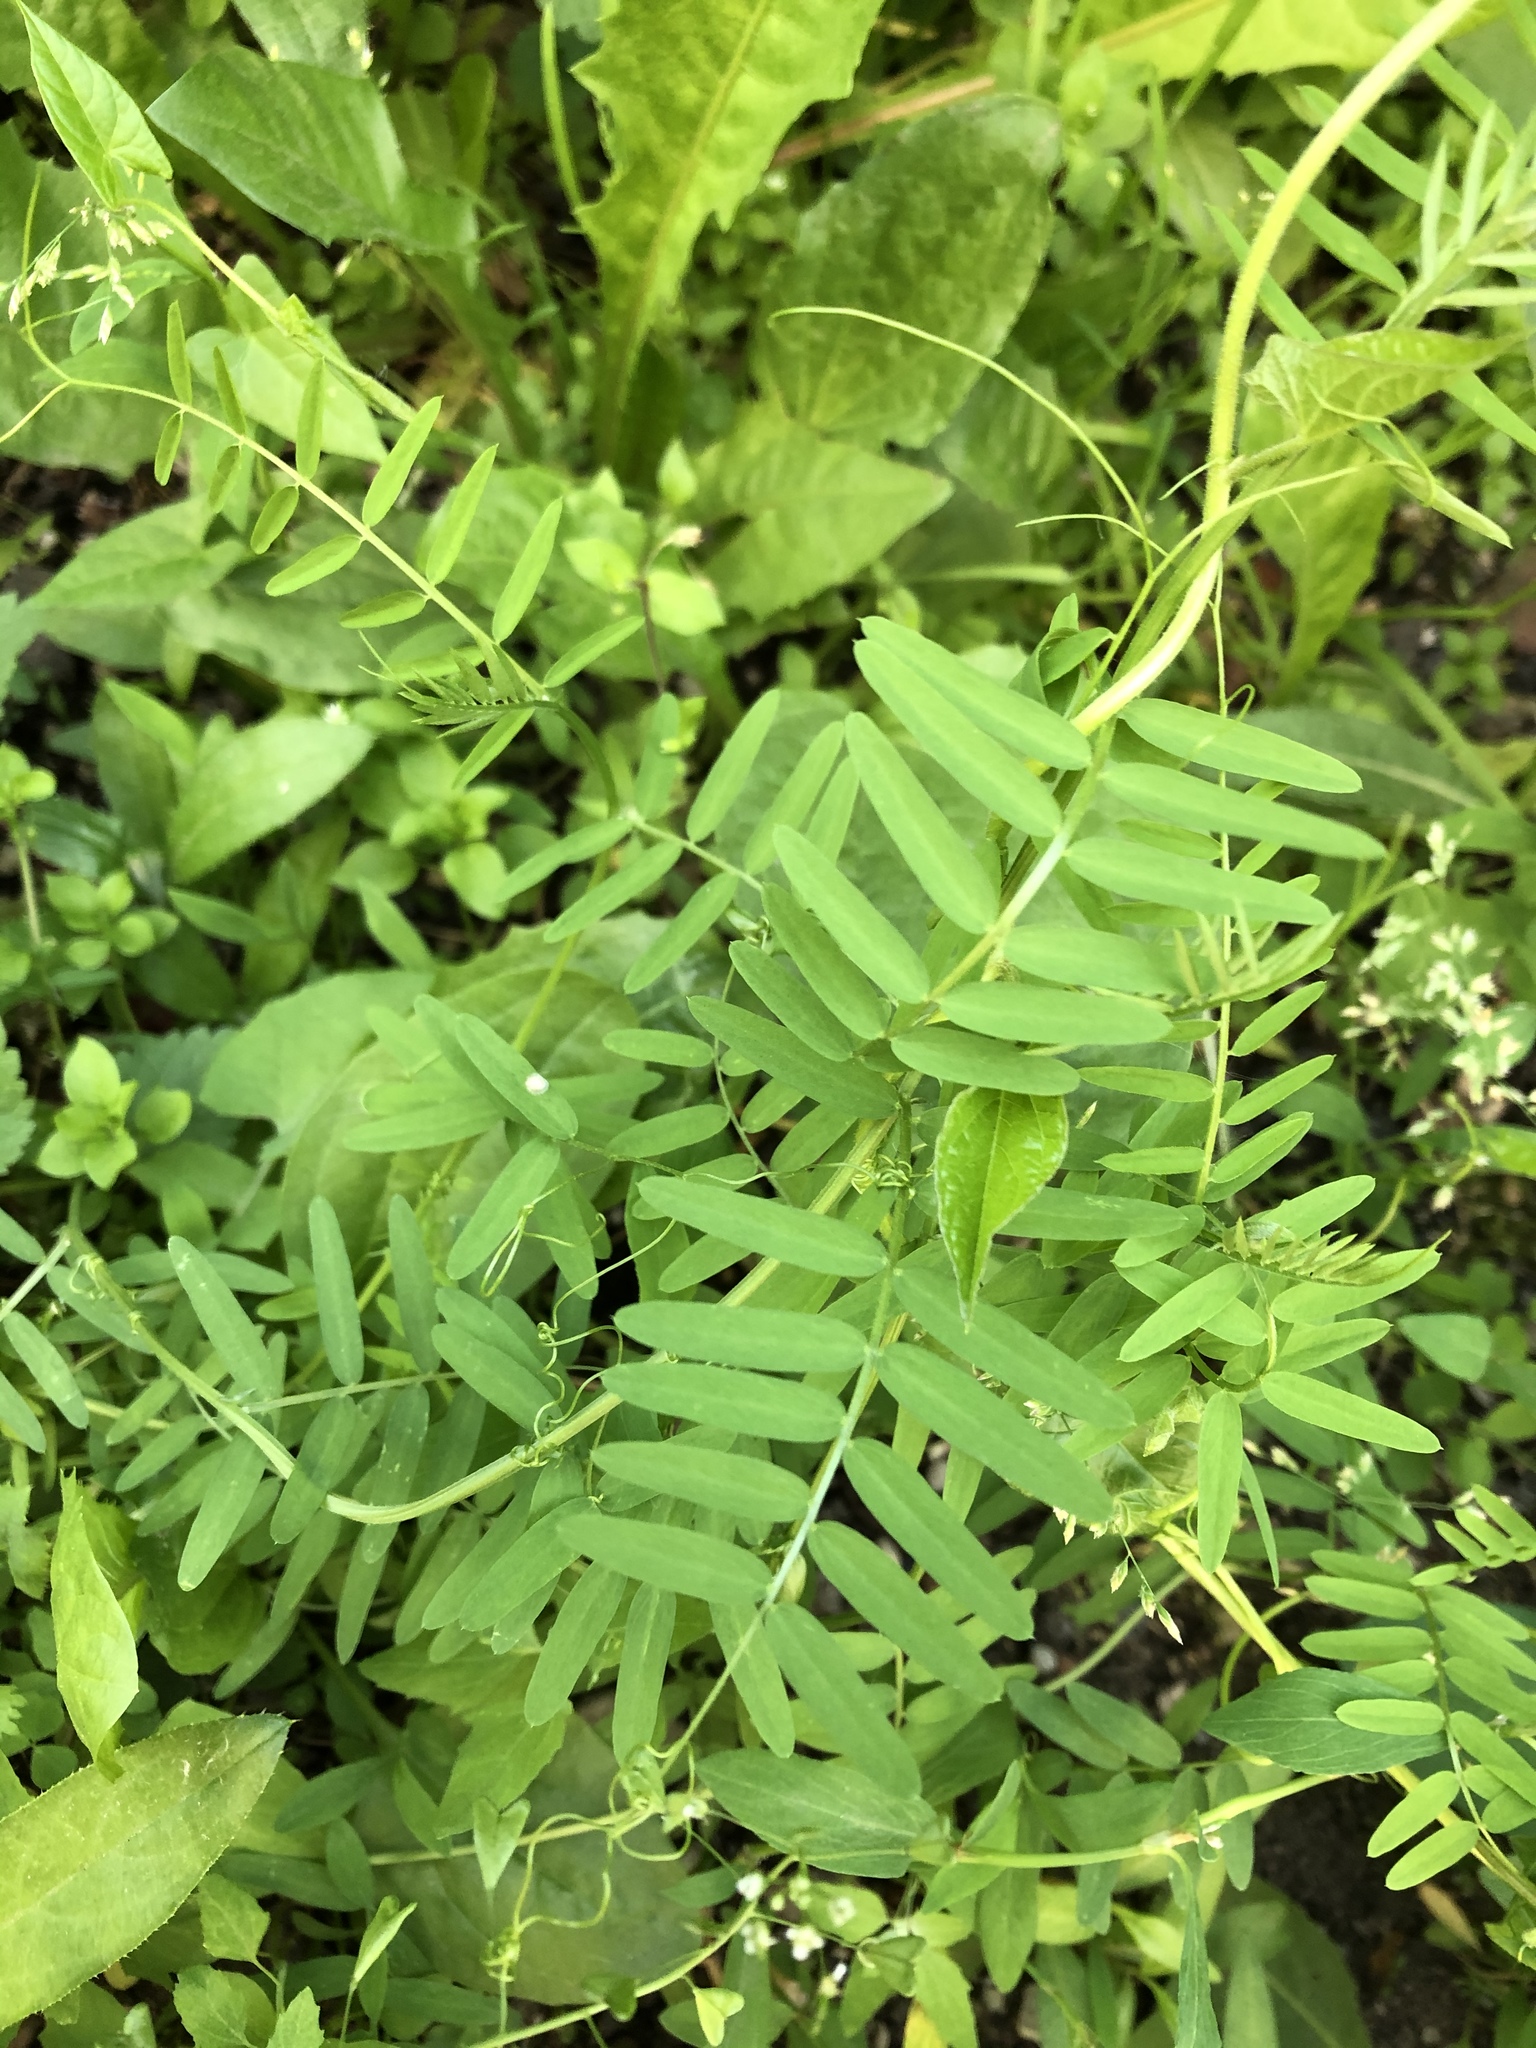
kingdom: Plantae
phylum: Tracheophyta
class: Magnoliopsida
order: Fabales
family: Fabaceae
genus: Vicia
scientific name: Vicia hirsuta
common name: Tiny vetch
